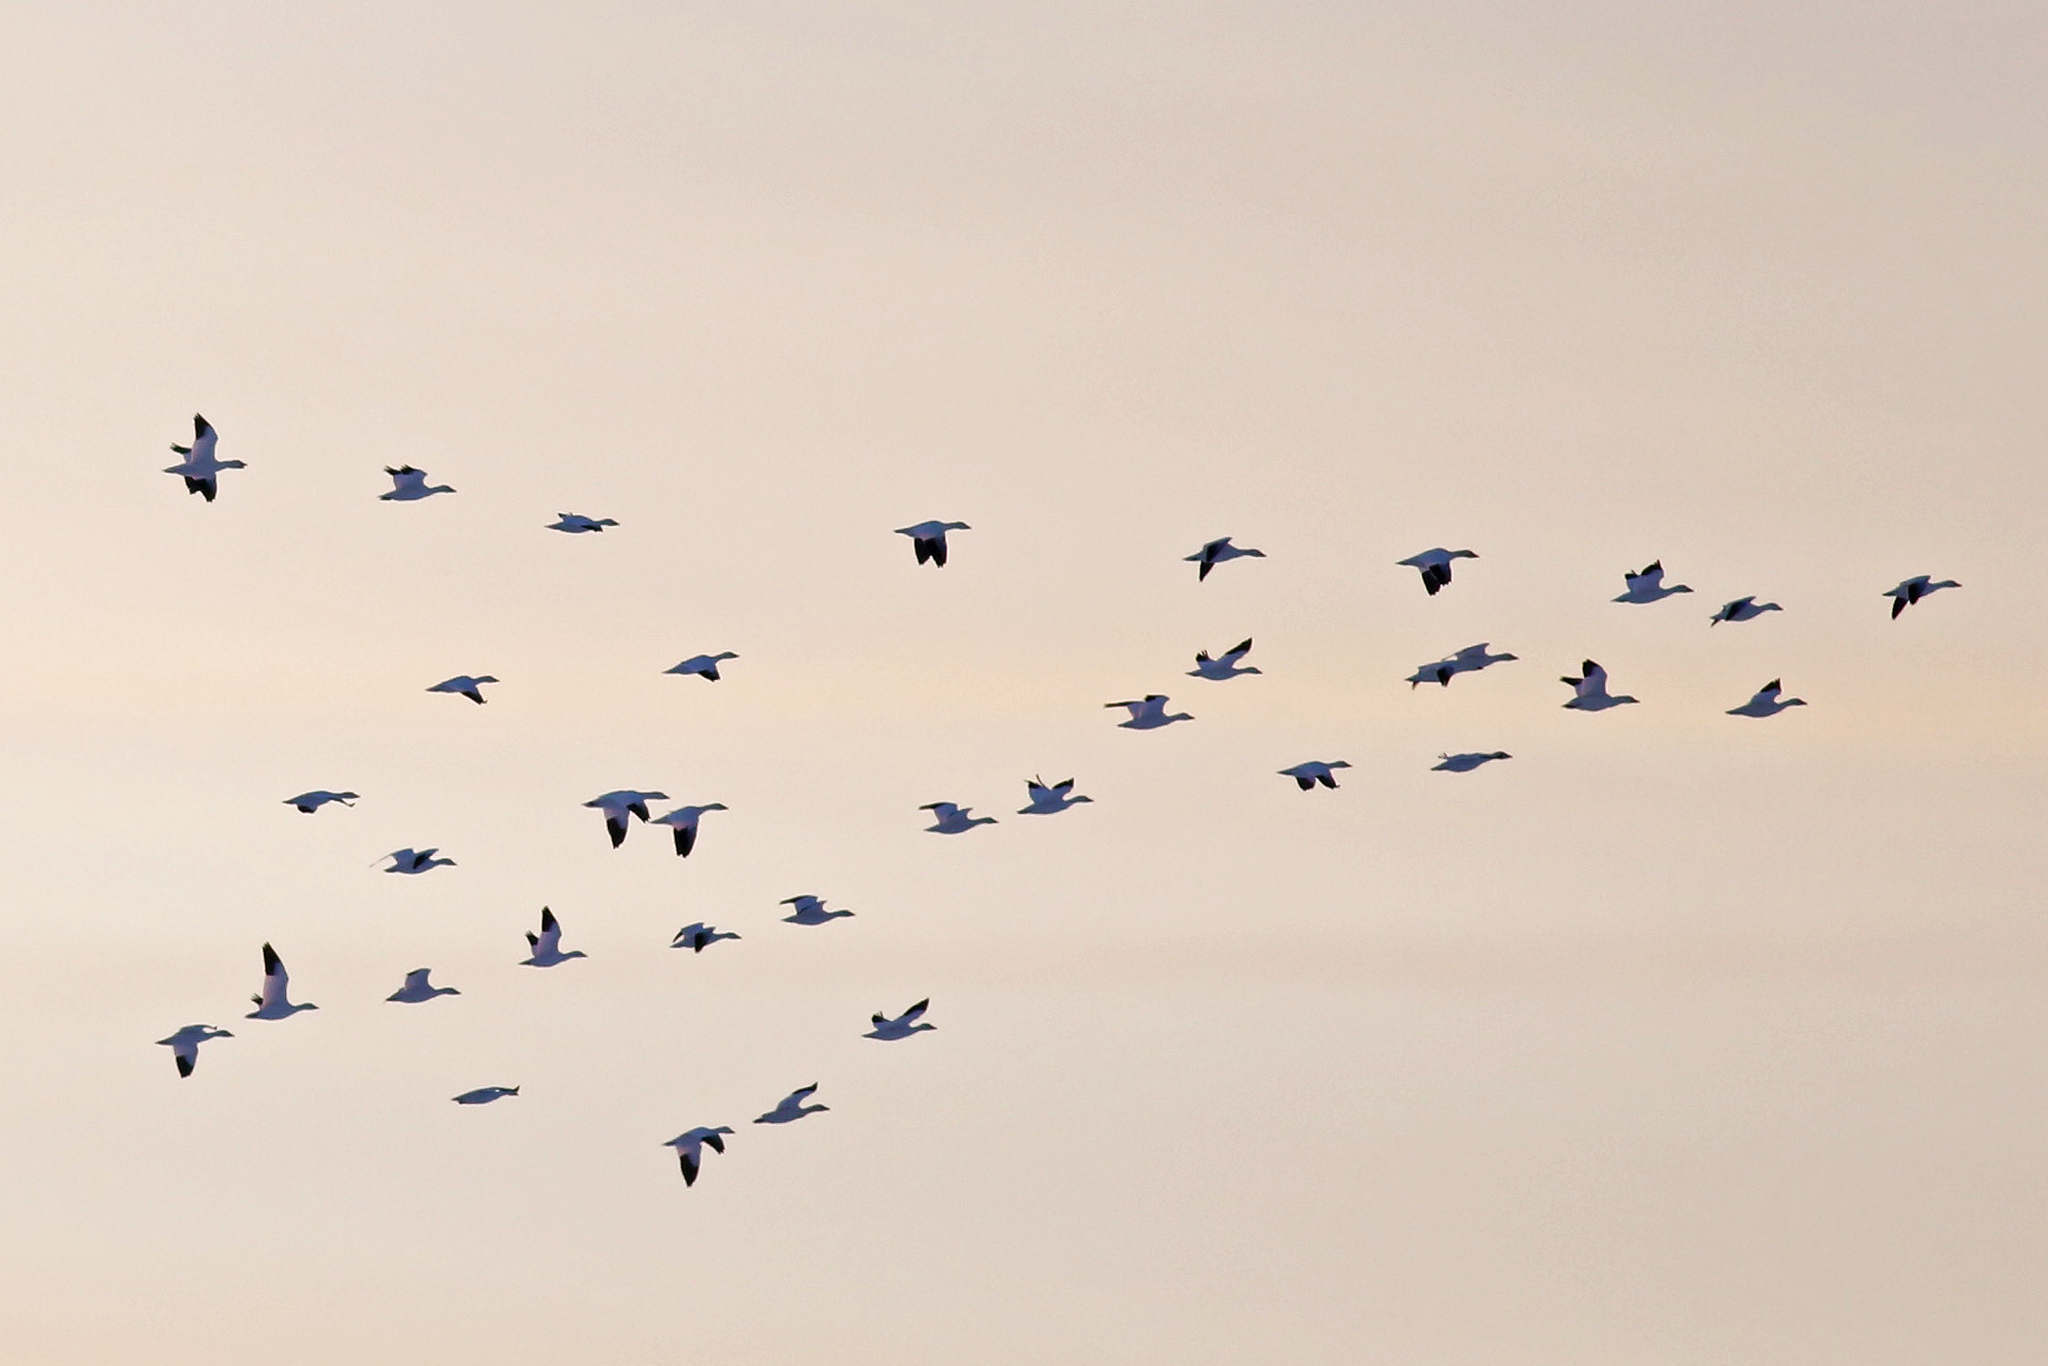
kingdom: Animalia
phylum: Chordata
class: Aves
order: Anseriformes
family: Anatidae
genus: Anser
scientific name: Anser caerulescens
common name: Snow goose
